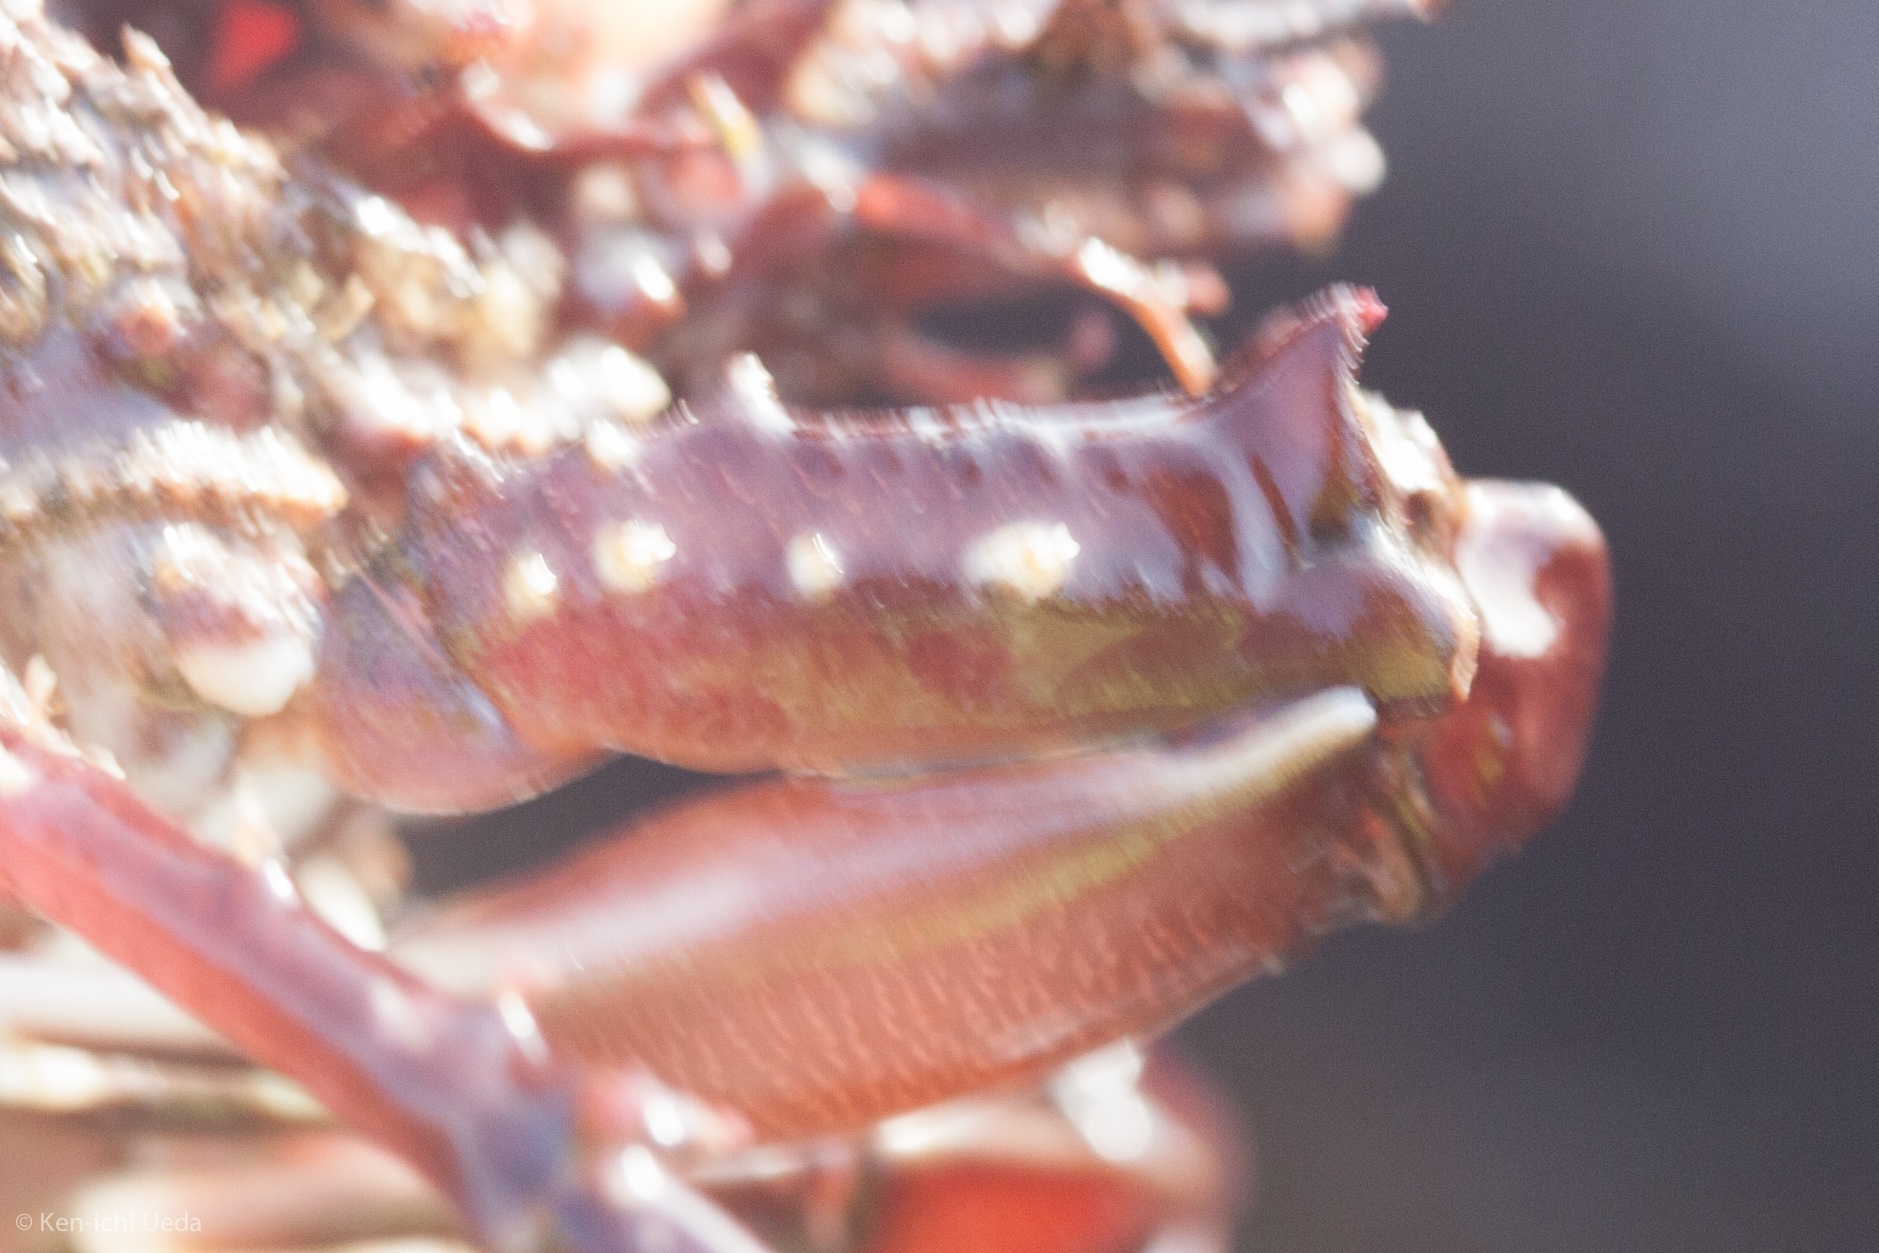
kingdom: Animalia
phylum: Arthropoda
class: Malacostraca
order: Decapoda
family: Epialtidae
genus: Pugettia
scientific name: Pugettia richii
